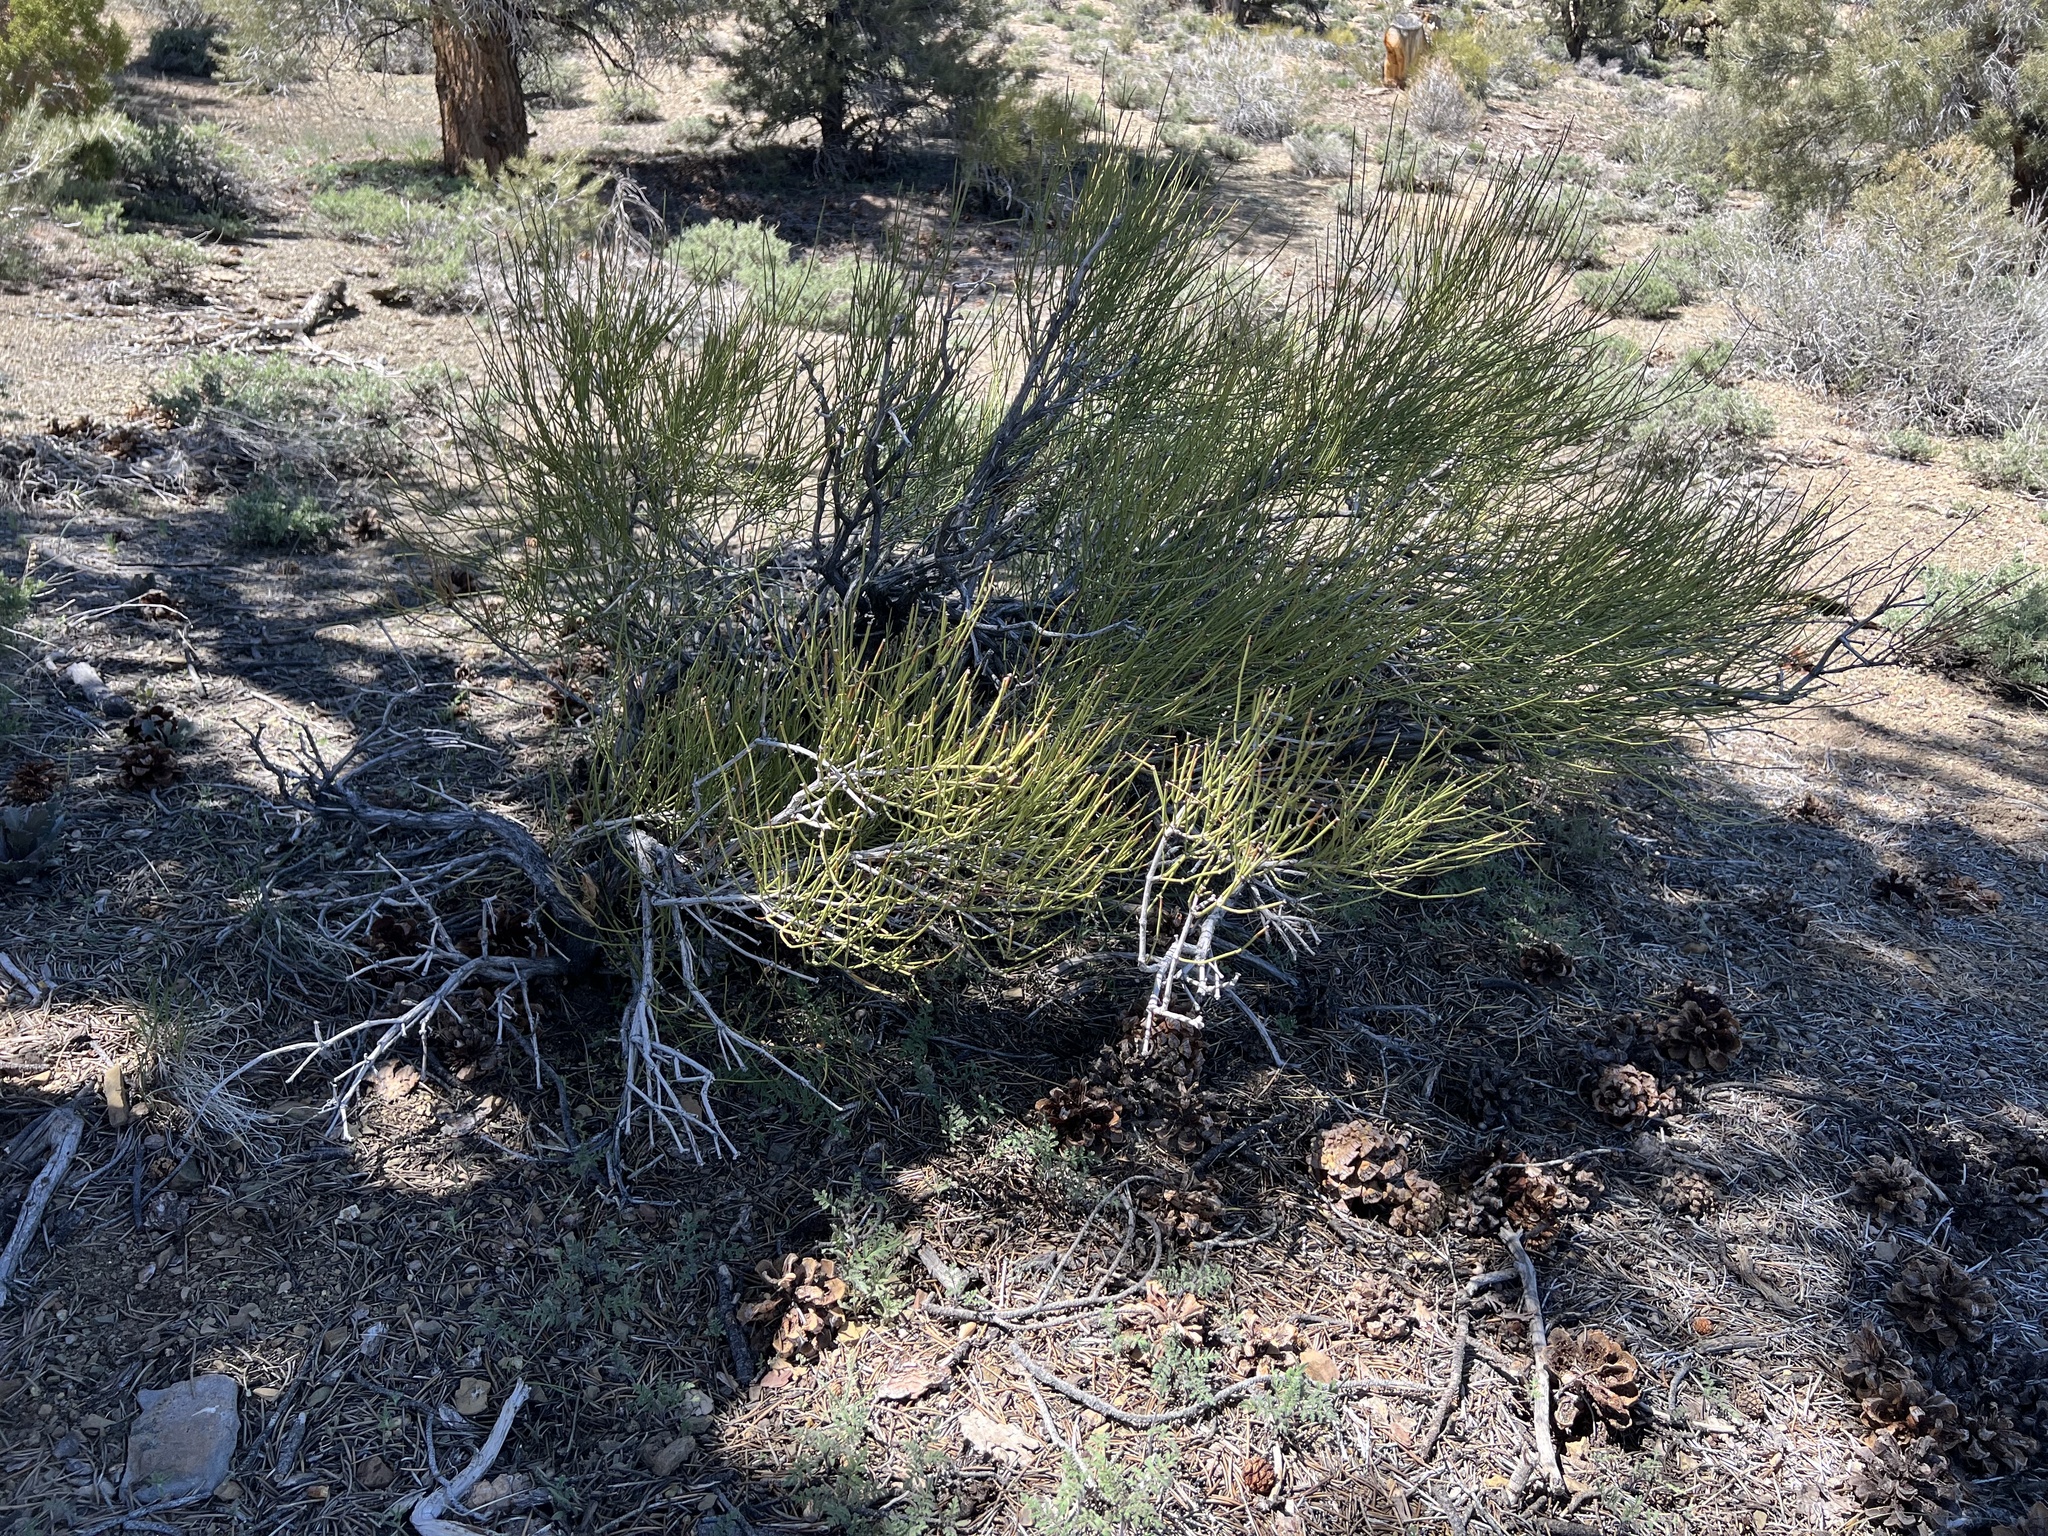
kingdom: Plantae
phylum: Tracheophyta
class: Gnetopsida
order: Ephedrales
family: Ephedraceae
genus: Ephedra
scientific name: Ephedra viridis
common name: Green ephedra
